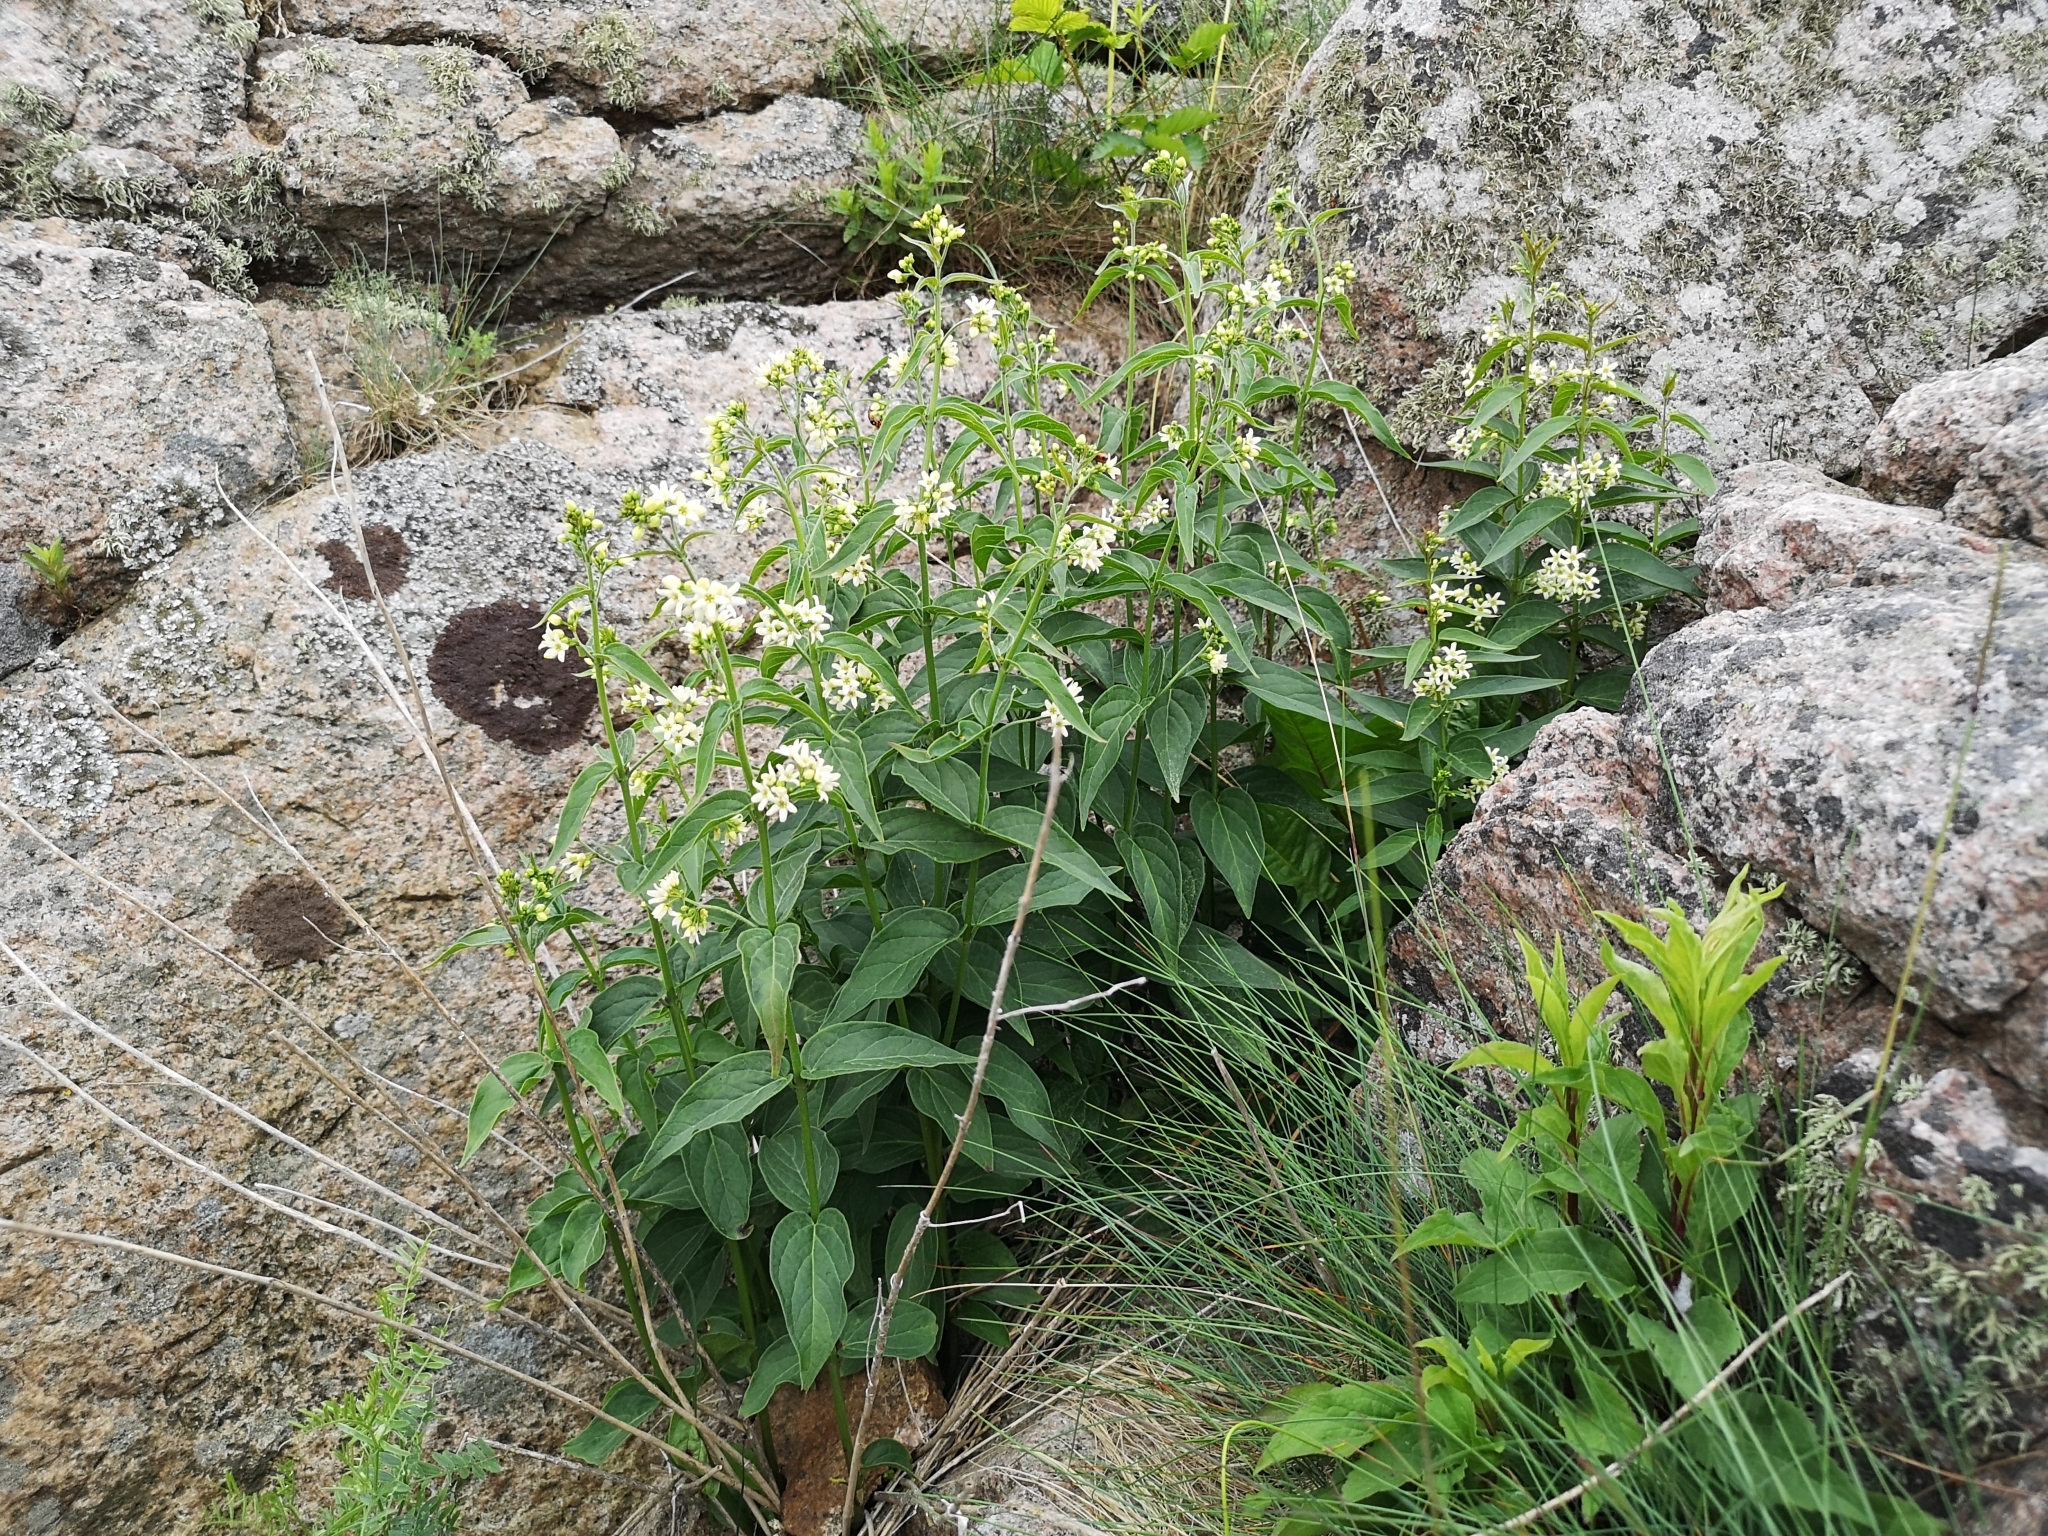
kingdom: Plantae
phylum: Tracheophyta
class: Magnoliopsida
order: Gentianales
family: Apocynaceae
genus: Vincetoxicum
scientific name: Vincetoxicum hirundinaria
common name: White swallowwort
